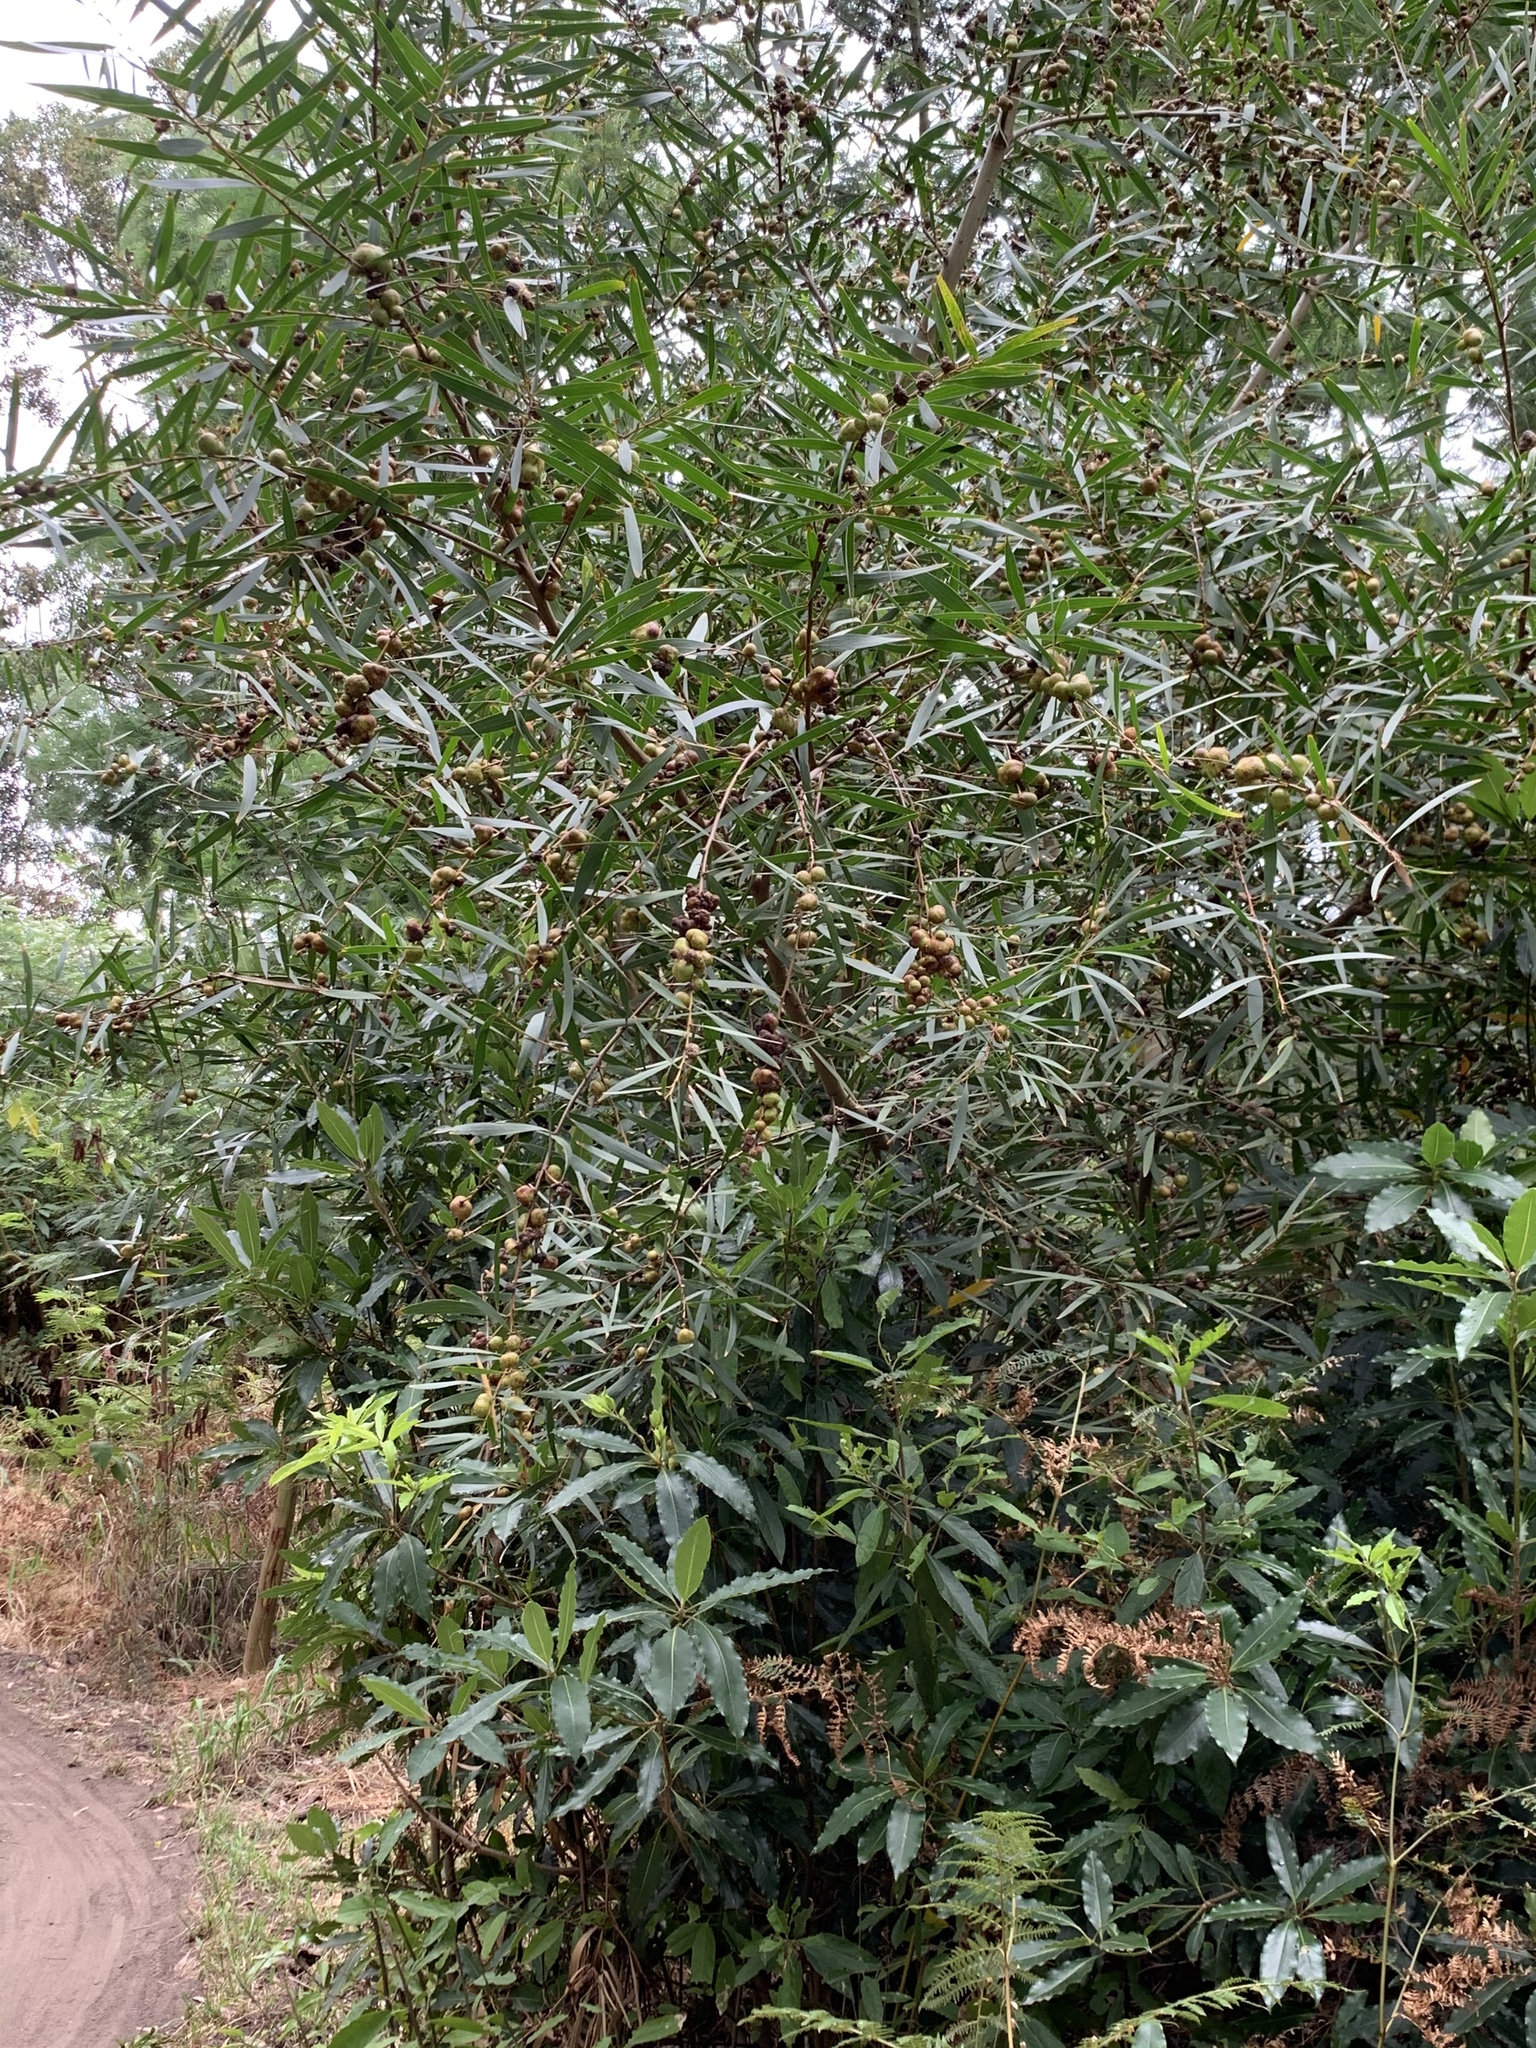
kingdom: Plantae
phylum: Tracheophyta
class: Magnoliopsida
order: Fabales
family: Fabaceae
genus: Acacia
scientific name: Acacia longifolia
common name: Sydney golden wattle
